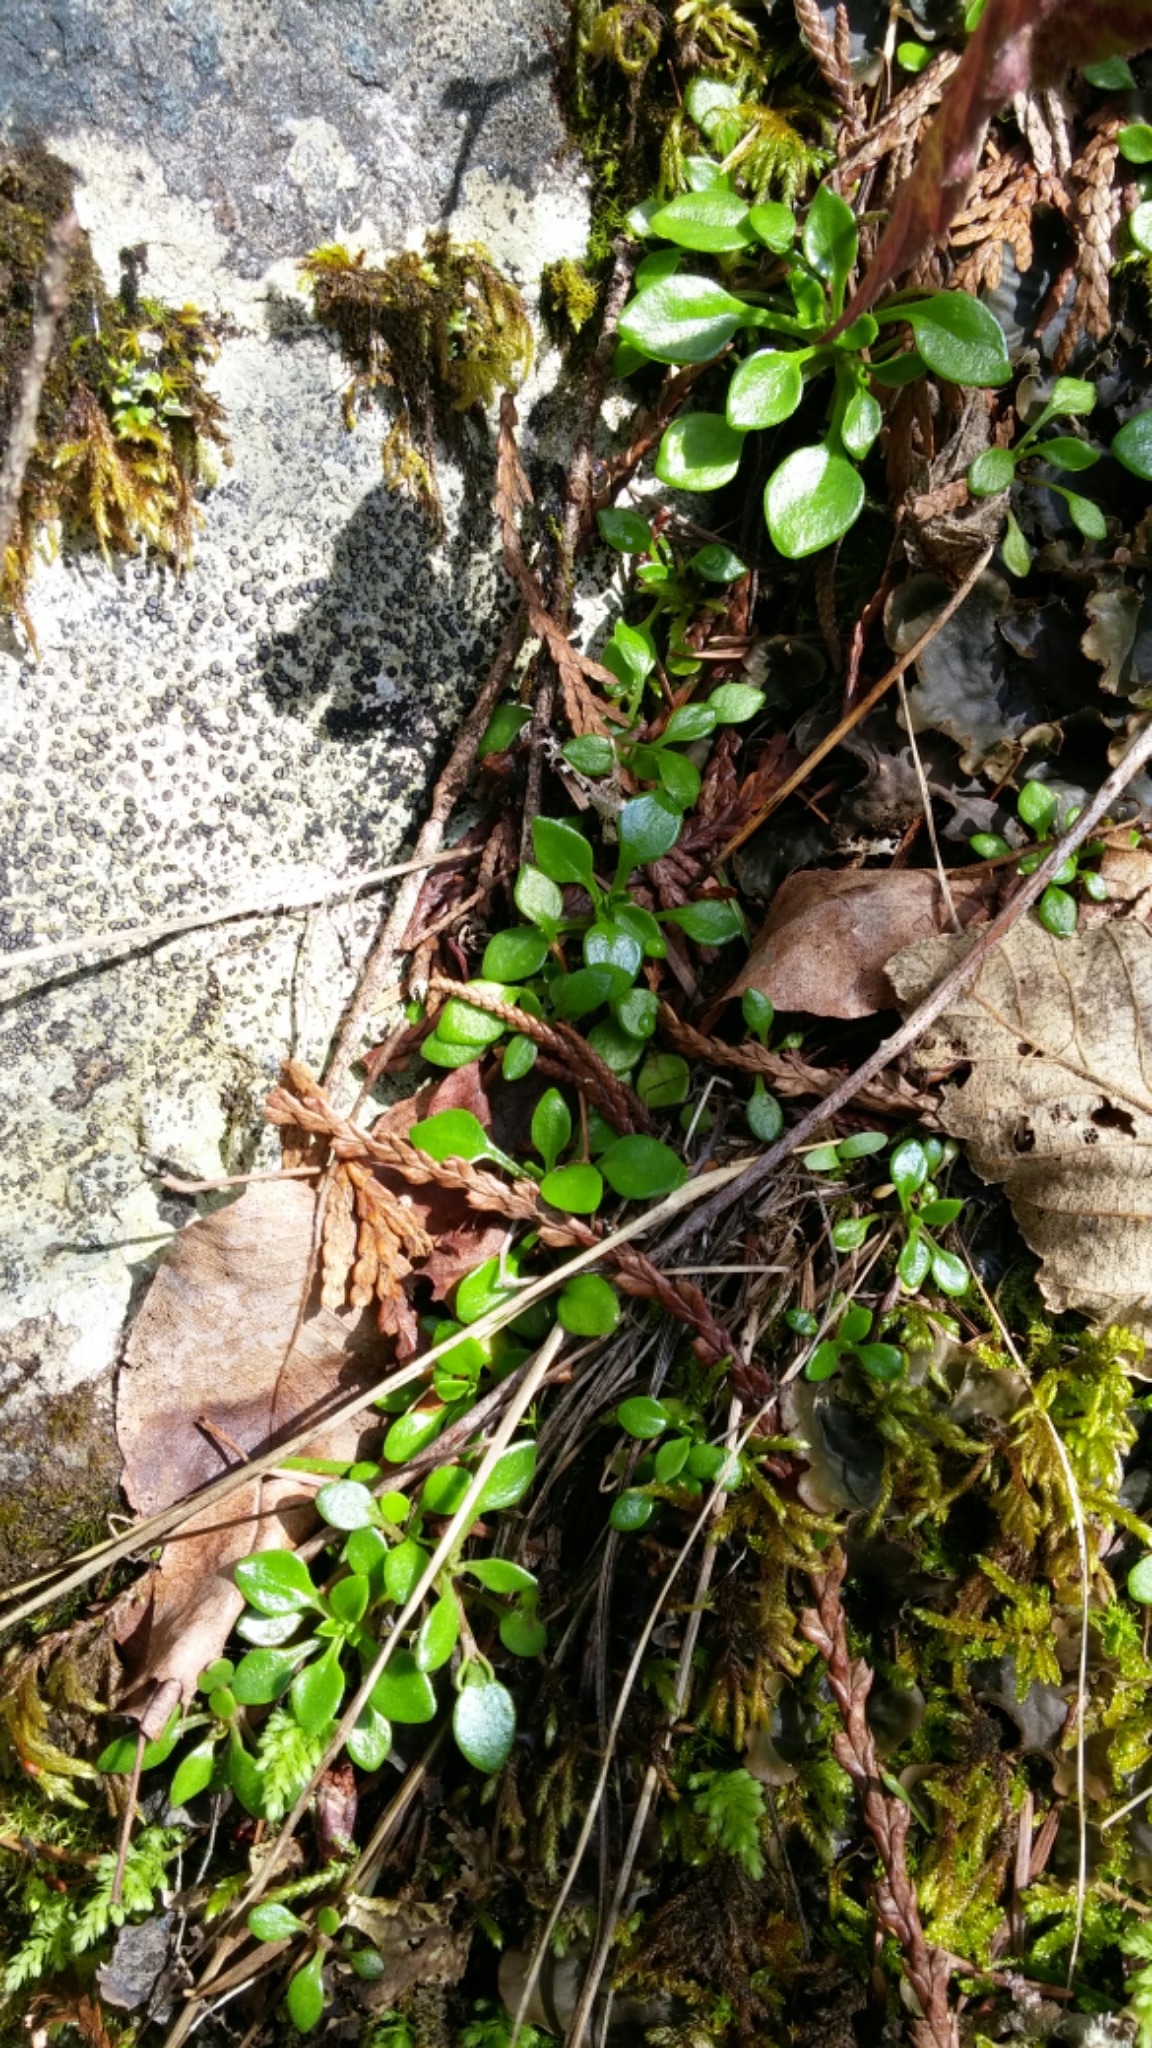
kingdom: Plantae
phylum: Tracheophyta
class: Magnoliopsida
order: Caryophyllales
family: Montiaceae
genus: Montia
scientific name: Montia parvifolia
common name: Small-leaved blinks
